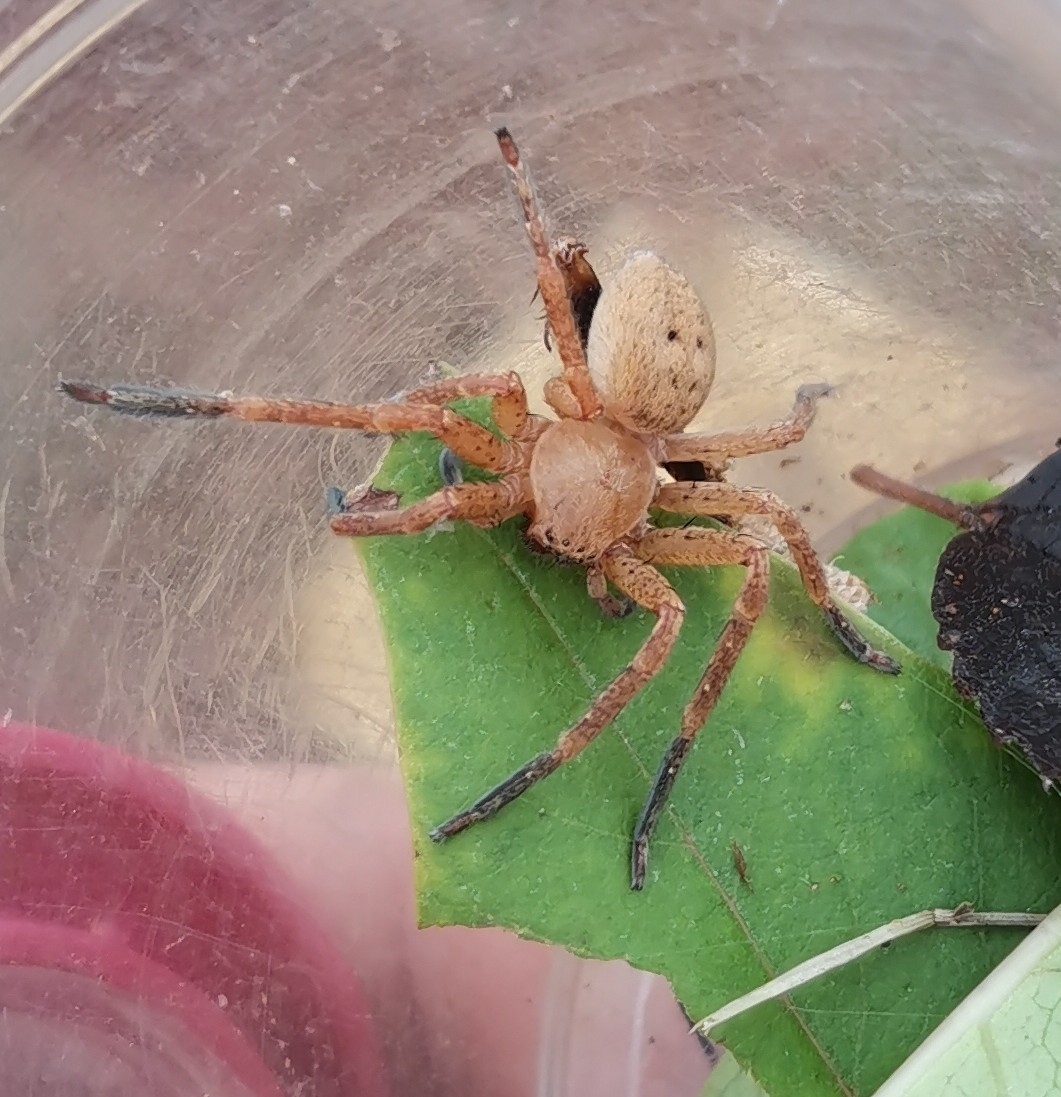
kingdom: Animalia
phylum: Arthropoda
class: Arachnida
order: Araneae
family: Sparassidae
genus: Olios
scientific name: Olios argelasius
